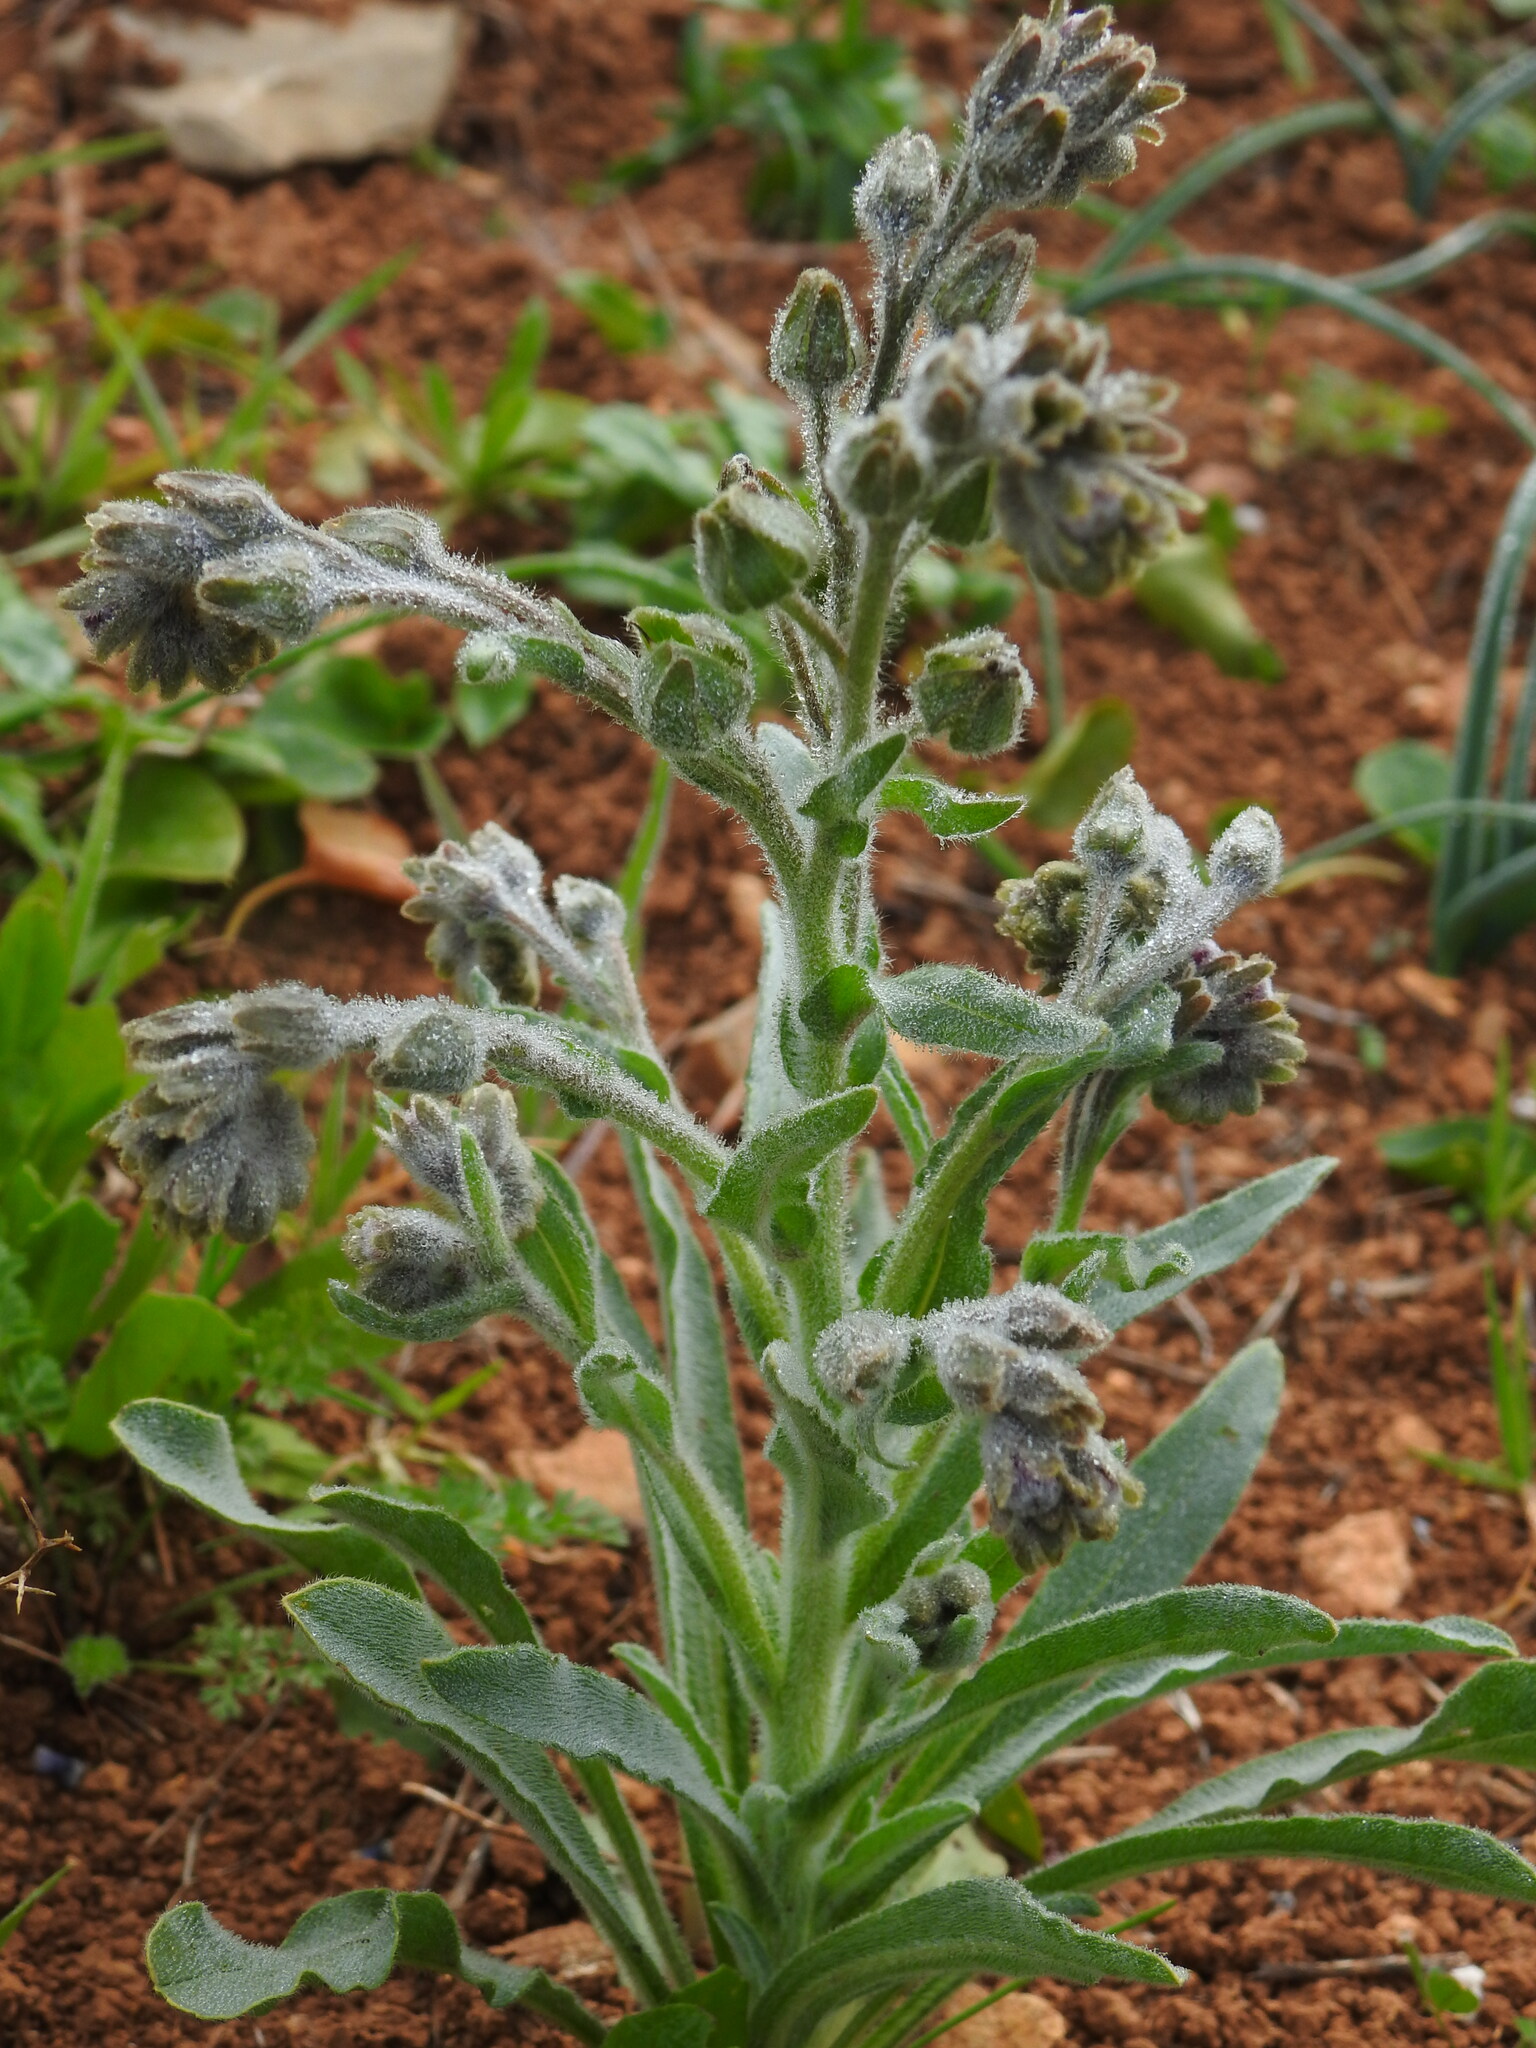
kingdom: Plantae
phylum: Tracheophyta
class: Magnoliopsida
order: Boraginales
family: Boraginaceae
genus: Cynoglossum
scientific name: Cynoglossum clandestinum
